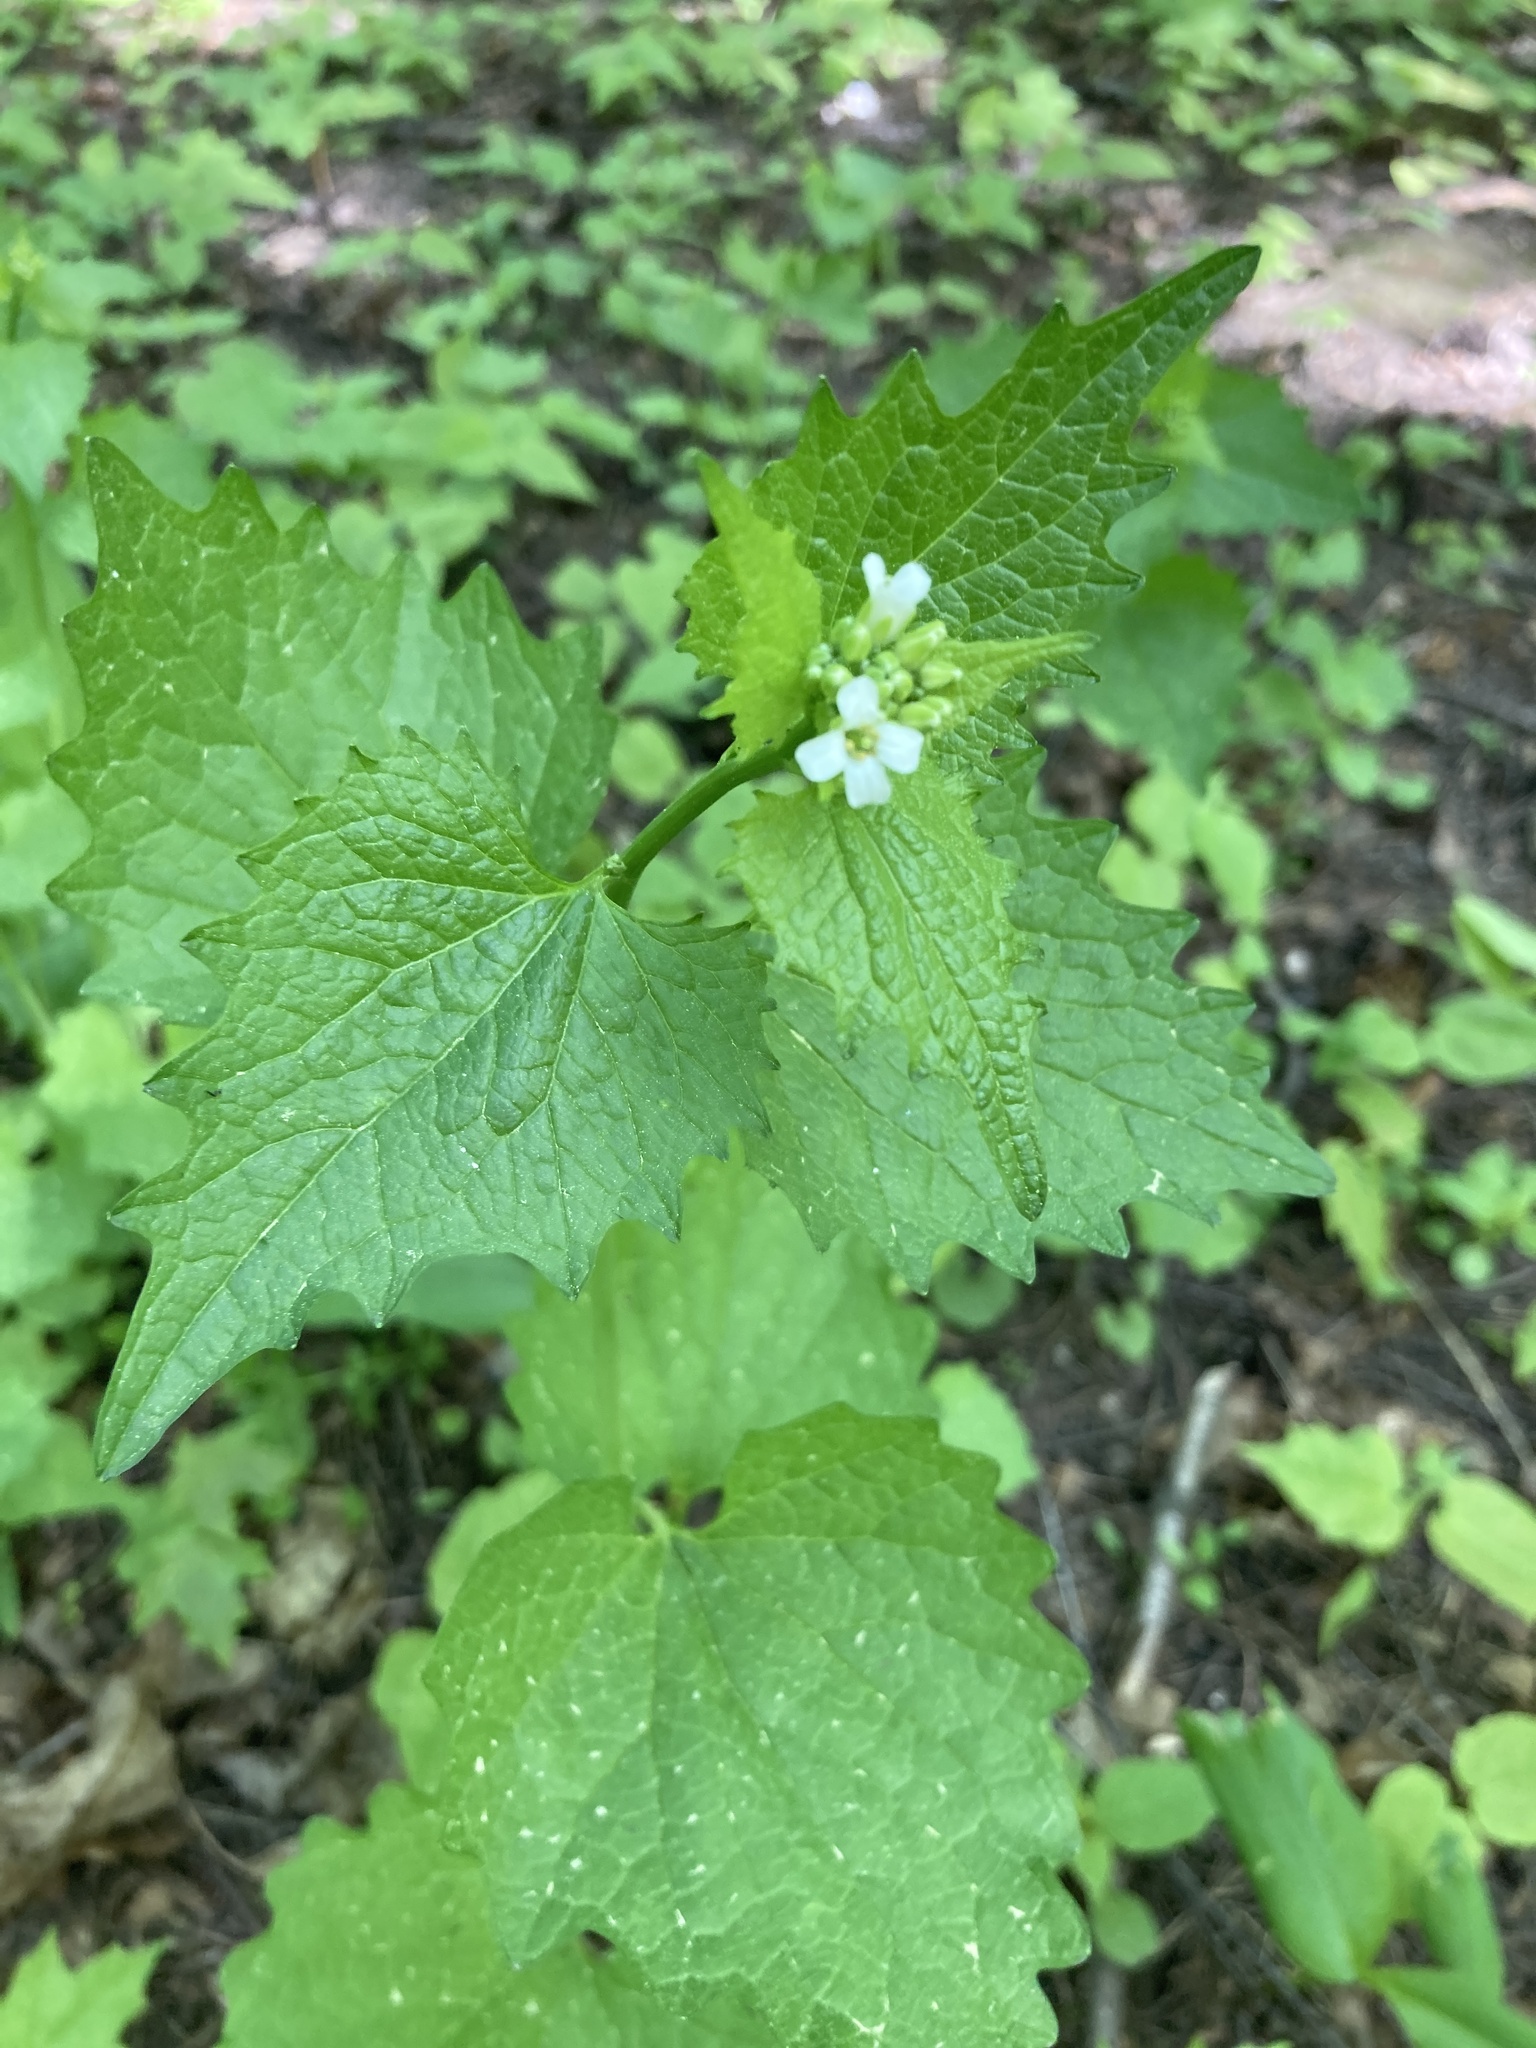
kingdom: Plantae
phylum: Tracheophyta
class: Magnoliopsida
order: Brassicales
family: Brassicaceae
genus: Alliaria
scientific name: Alliaria petiolata
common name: Garlic mustard
